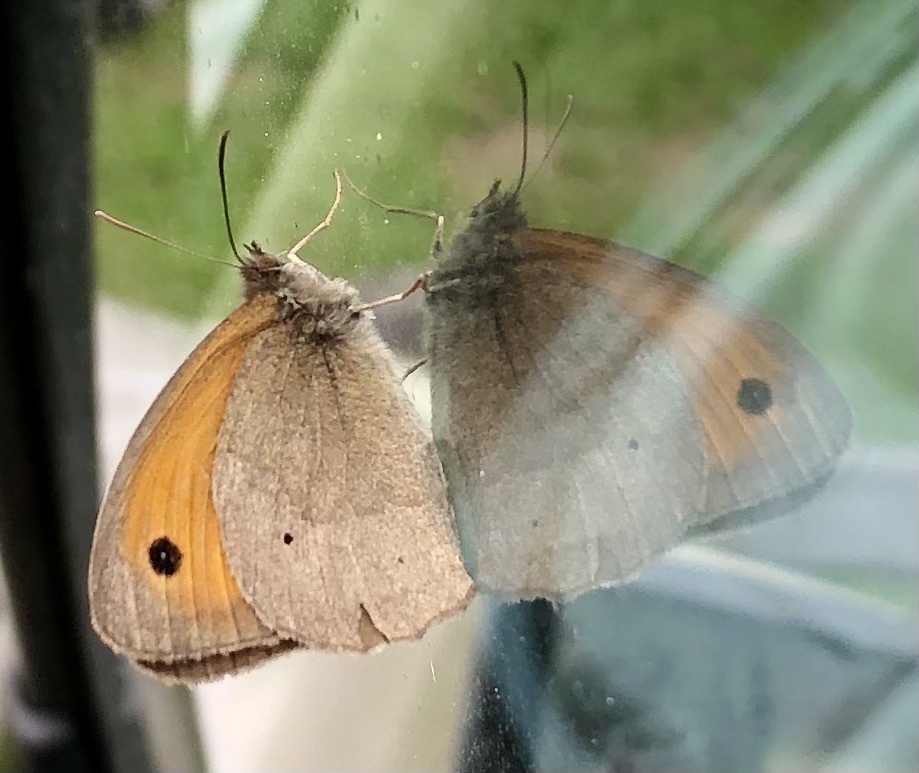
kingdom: Animalia
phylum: Arthropoda
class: Insecta
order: Lepidoptera
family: Nymphalidae
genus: Maniola
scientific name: Maniola jurtina
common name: Meadow brown
